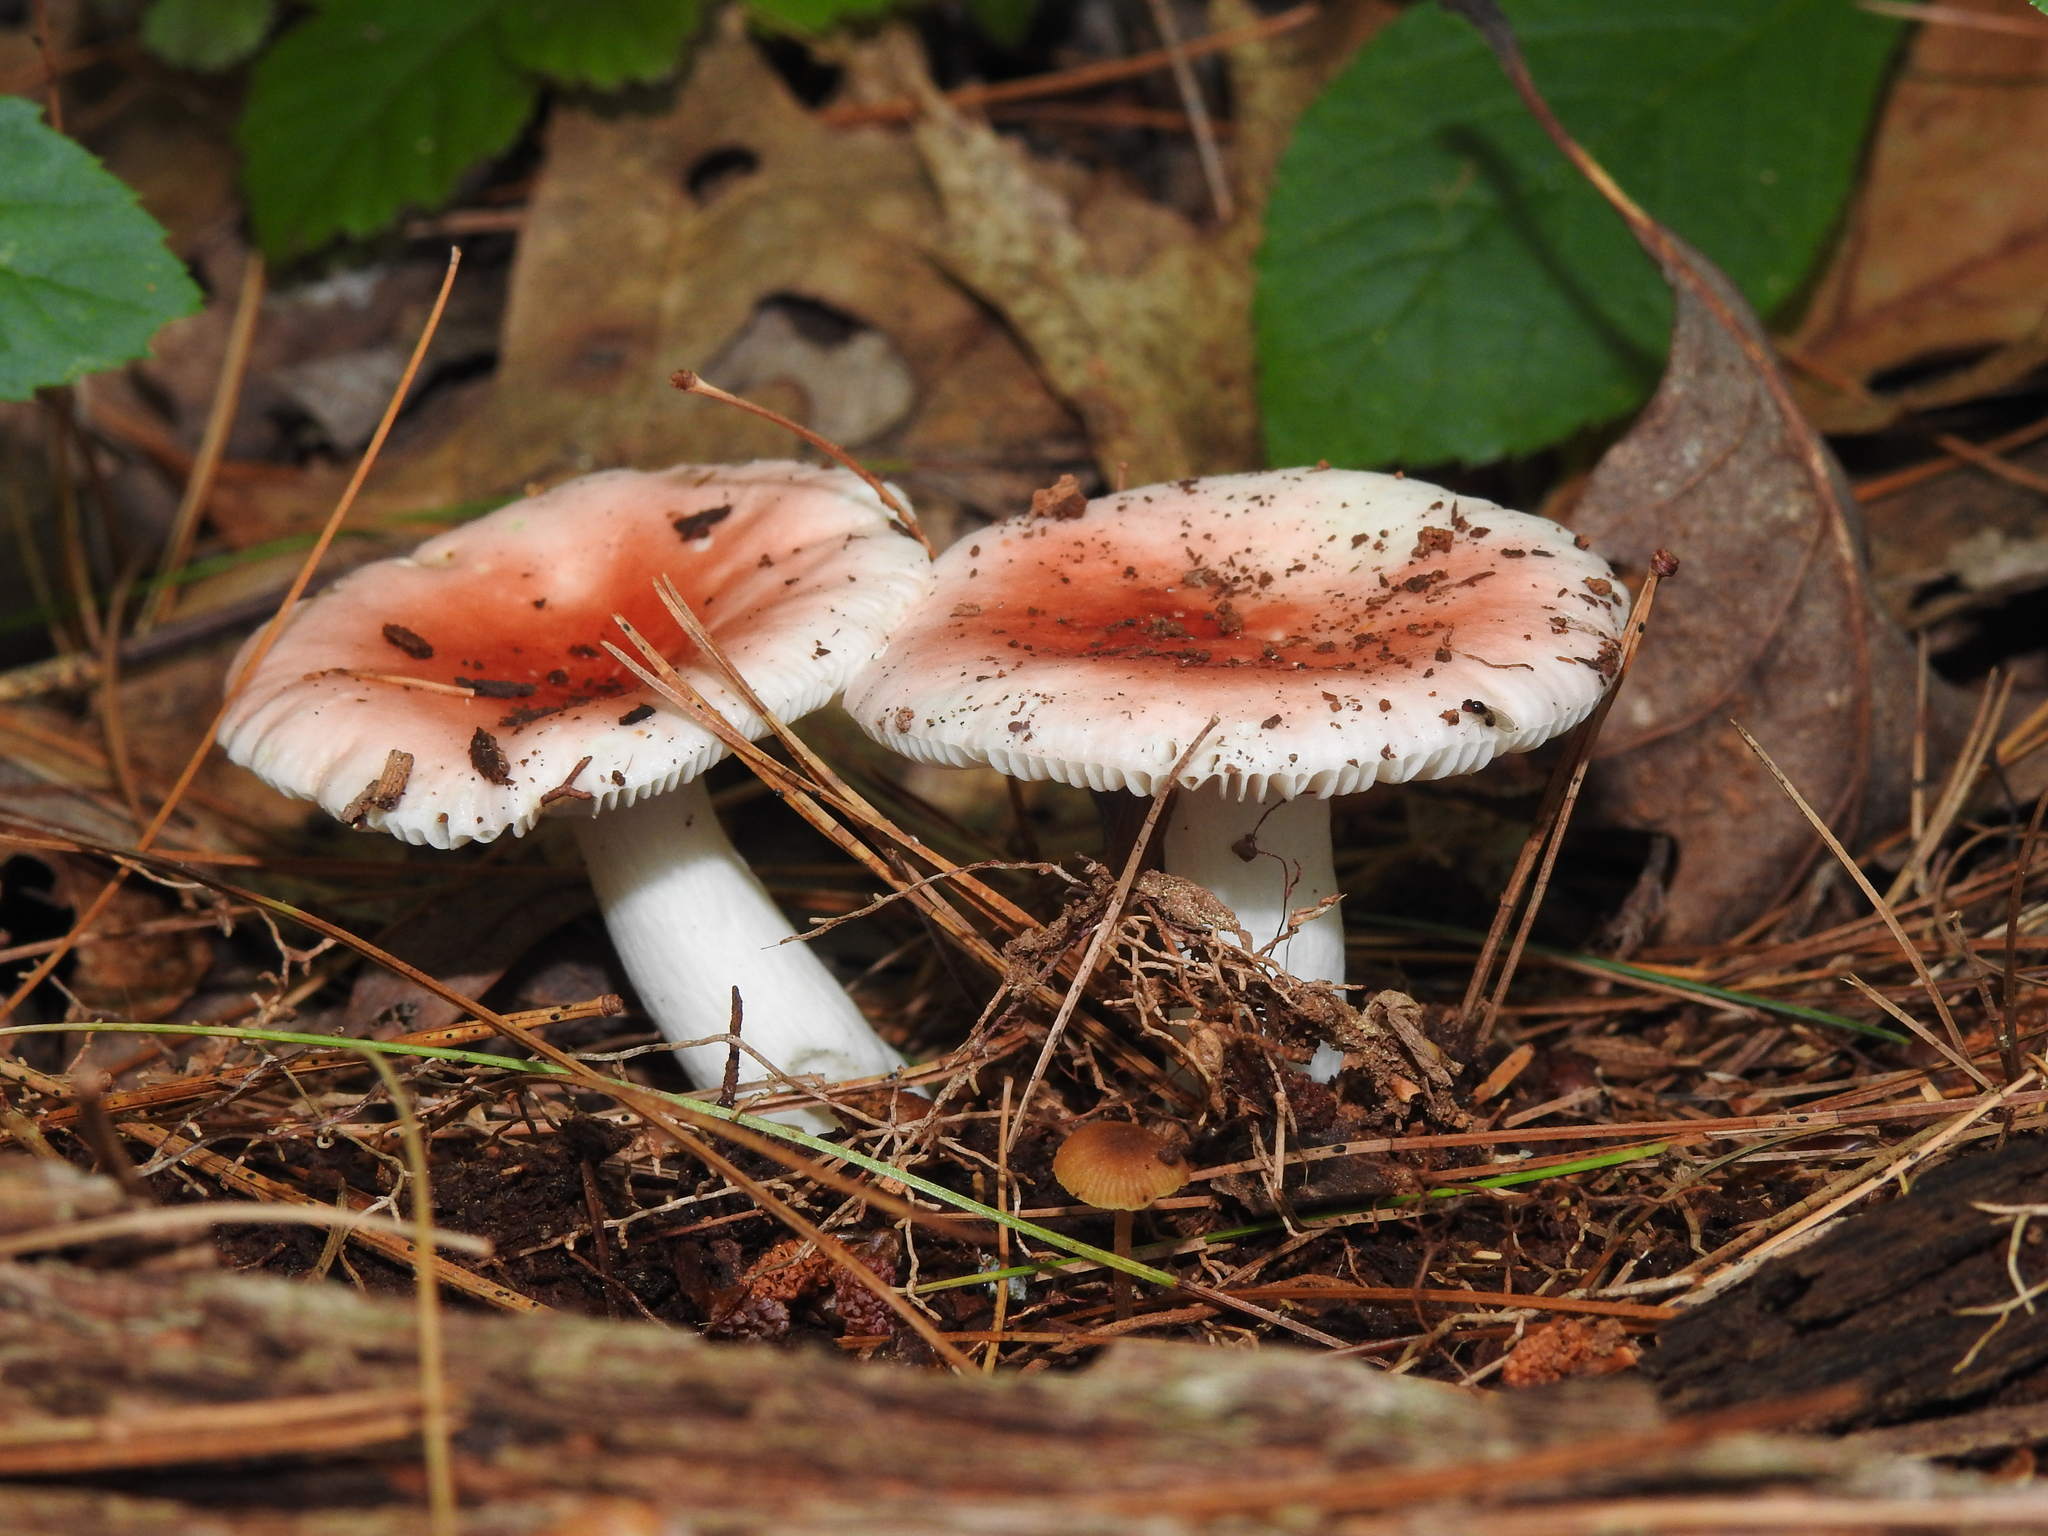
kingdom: Fungi
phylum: Basidiomycota
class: Agaricomycetes
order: Russulales
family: Russulaceae
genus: Russula
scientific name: Russula
